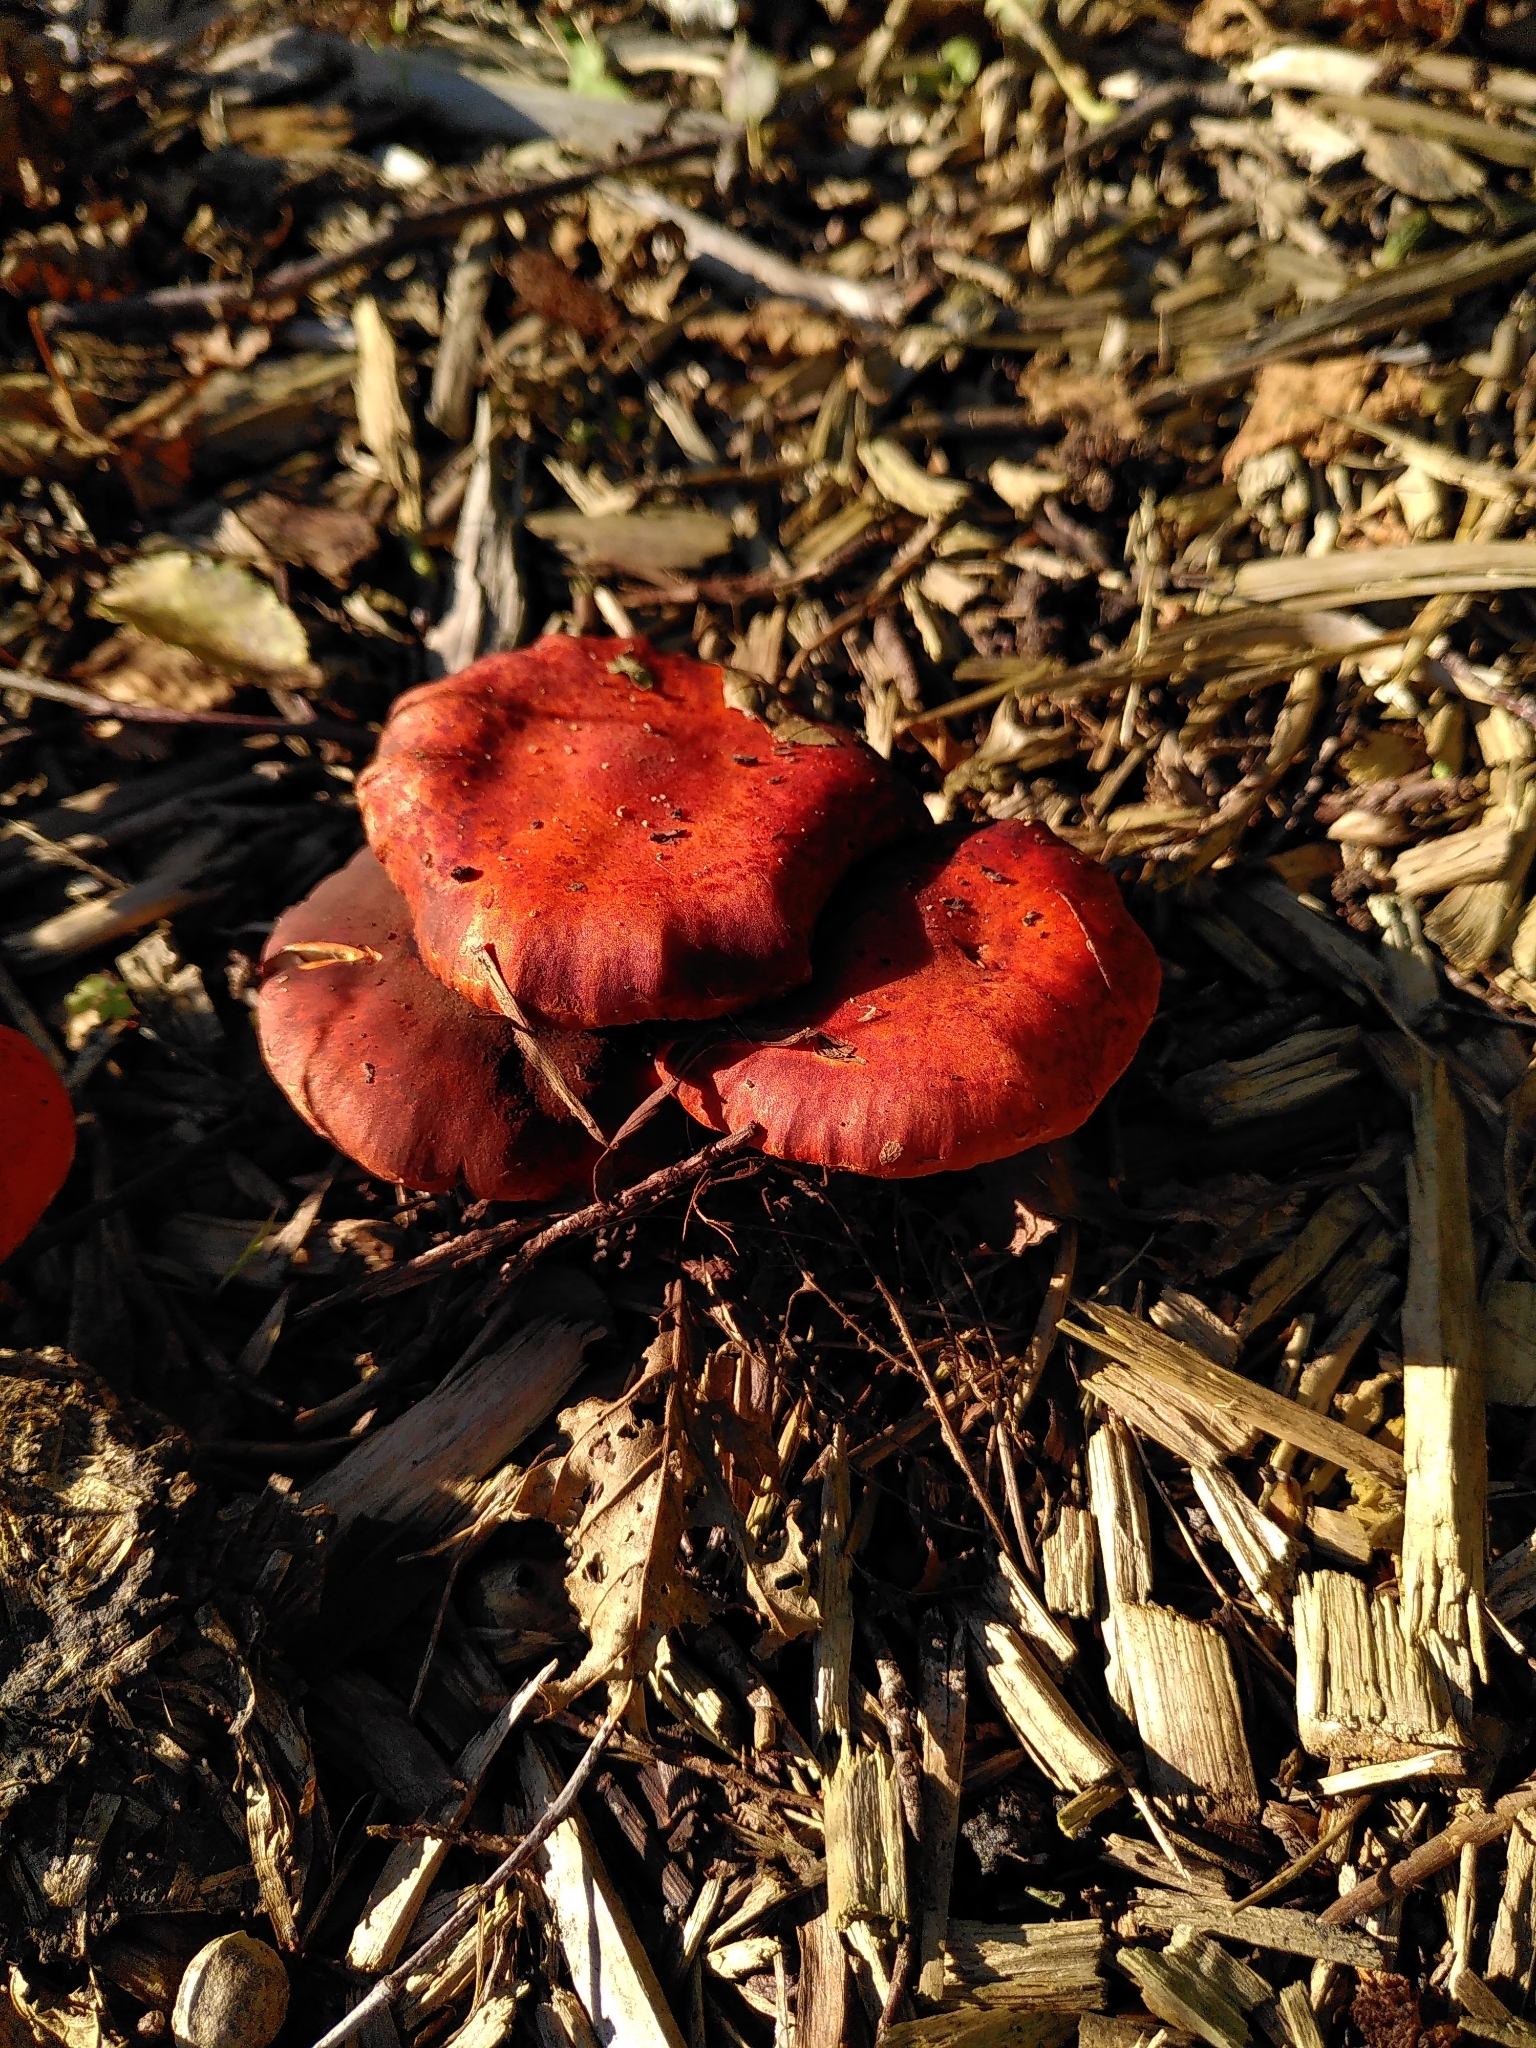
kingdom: Fungi
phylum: Basidiomycota
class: Agaricomycetes
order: Agaricales
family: Strophariaceae
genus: Leratiomyces
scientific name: Leratiomyces ceres
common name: Redlead roundhead
